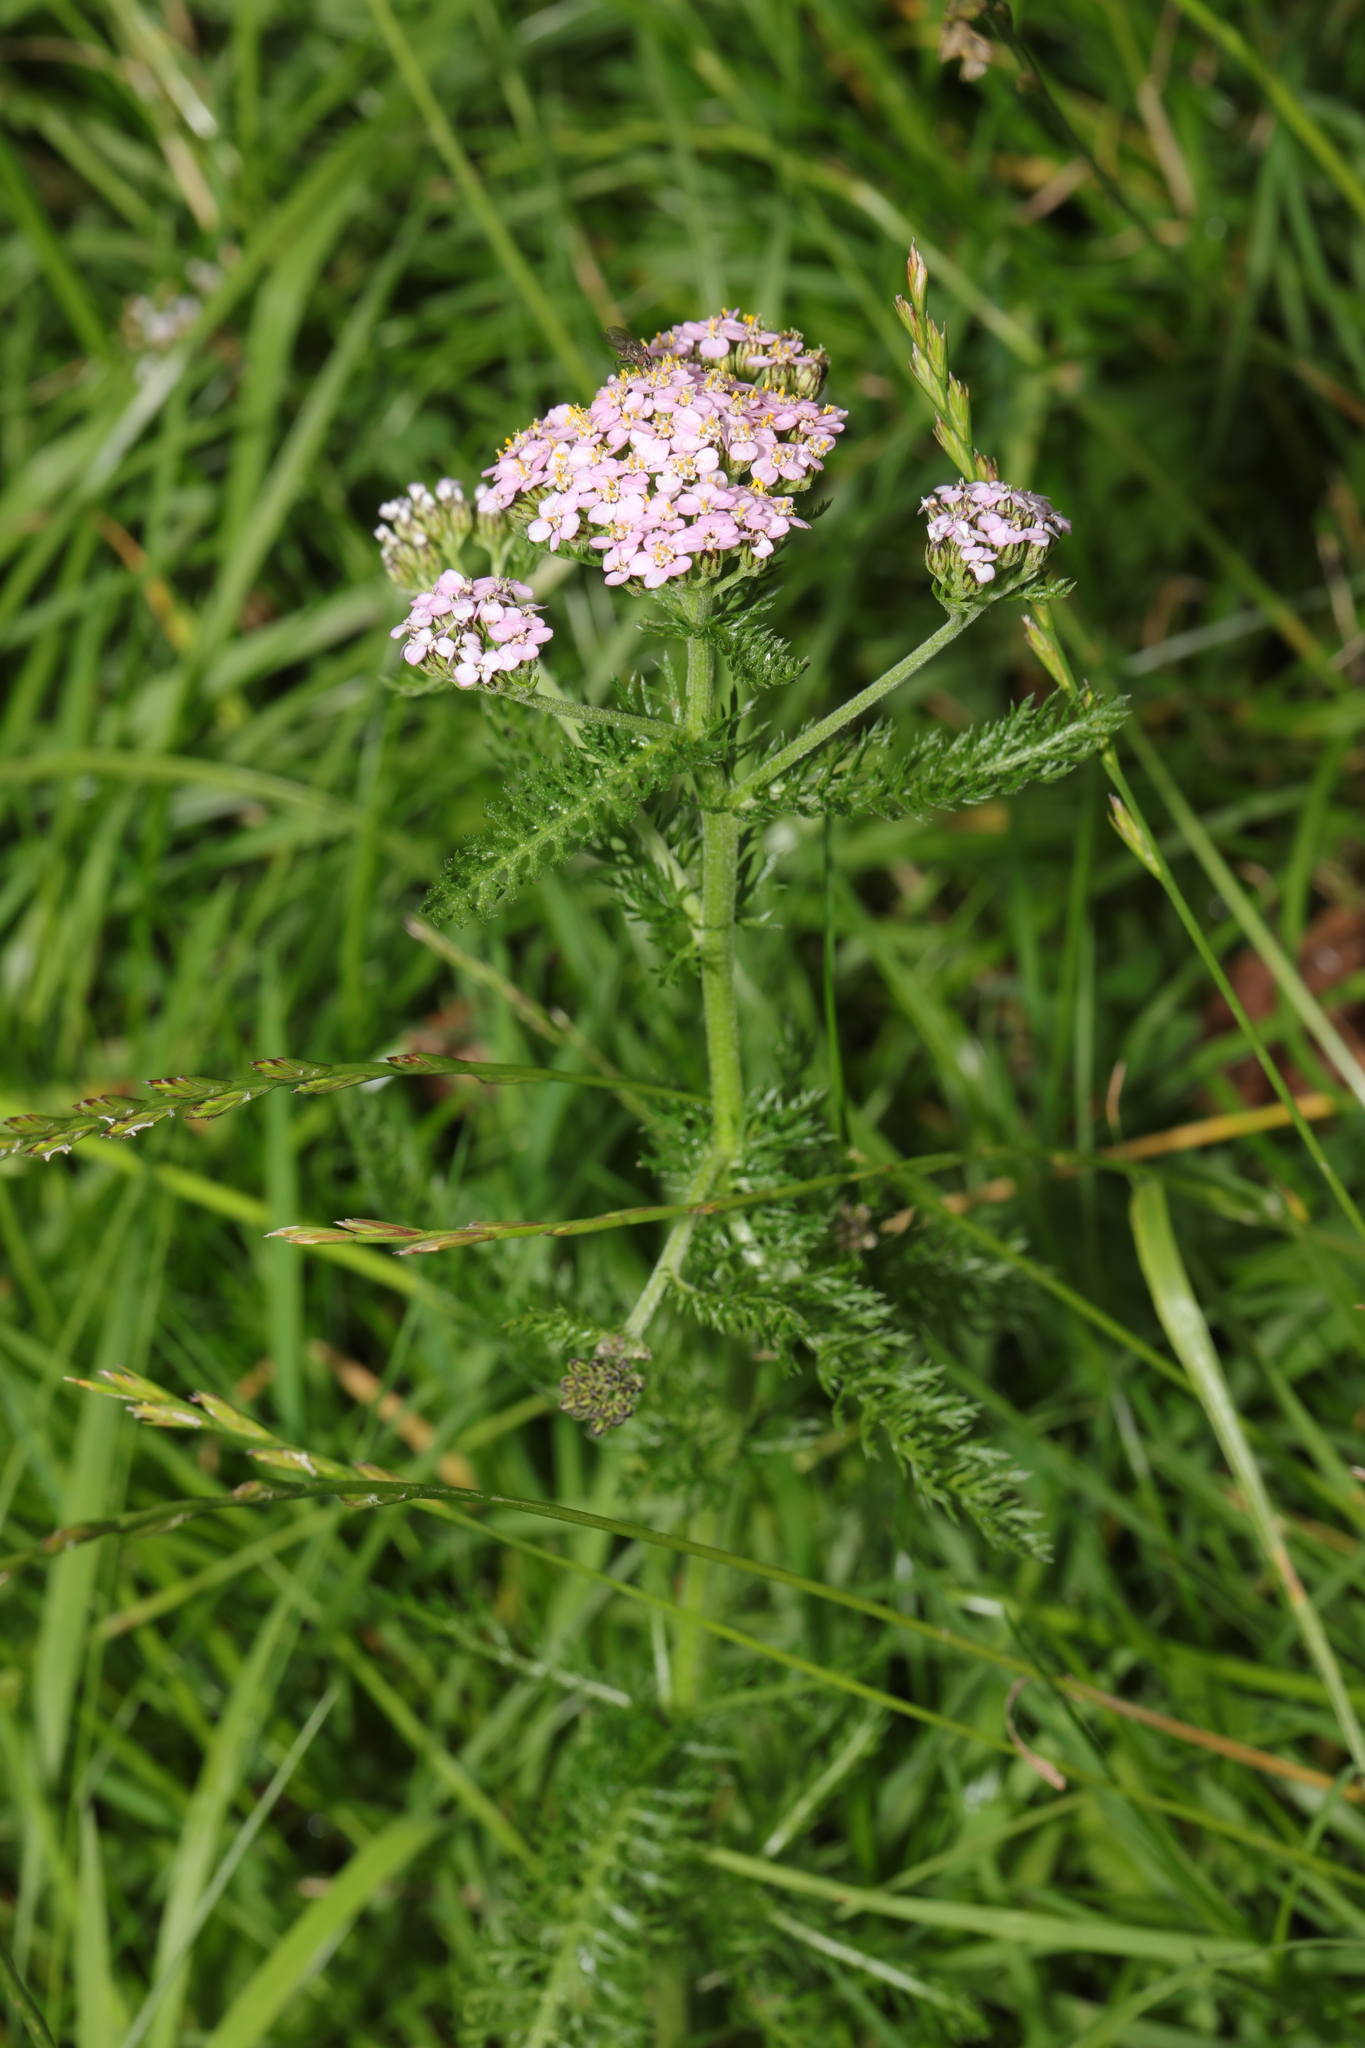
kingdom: Plantae
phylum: Tracheophyta
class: Magnoliopsida
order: Asterales
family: Asteraceae
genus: Achillea
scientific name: Achillea millefolium
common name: Yarrow
